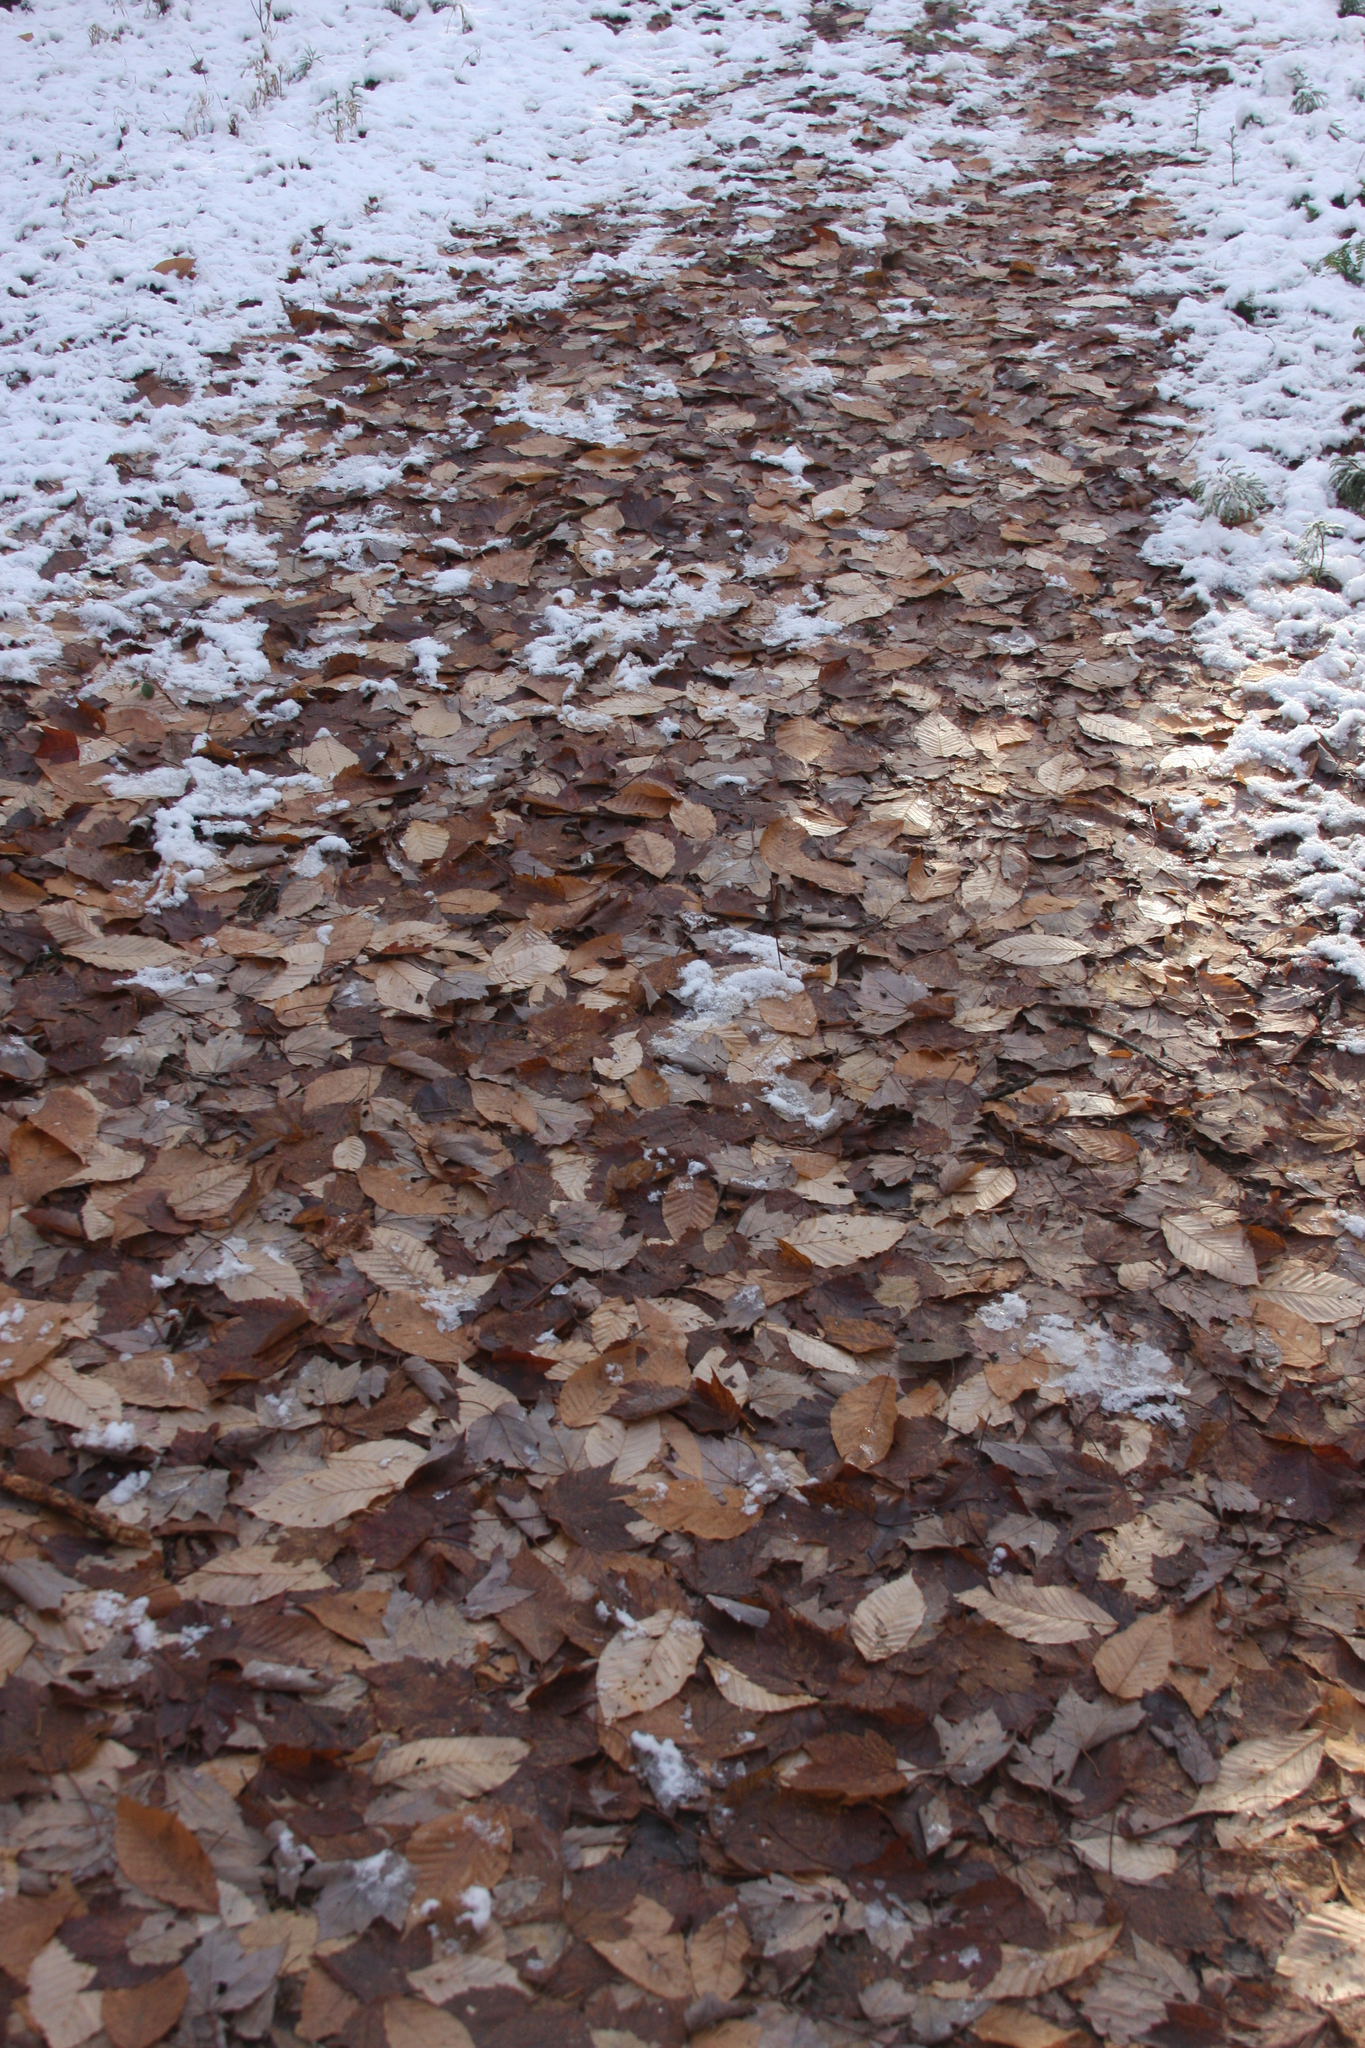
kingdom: Plantae
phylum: Tracheophyta
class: Magnoliopsida
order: Fagales
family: Fagaceae
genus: Fagus
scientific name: Fagus grandifolia
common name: American beech
